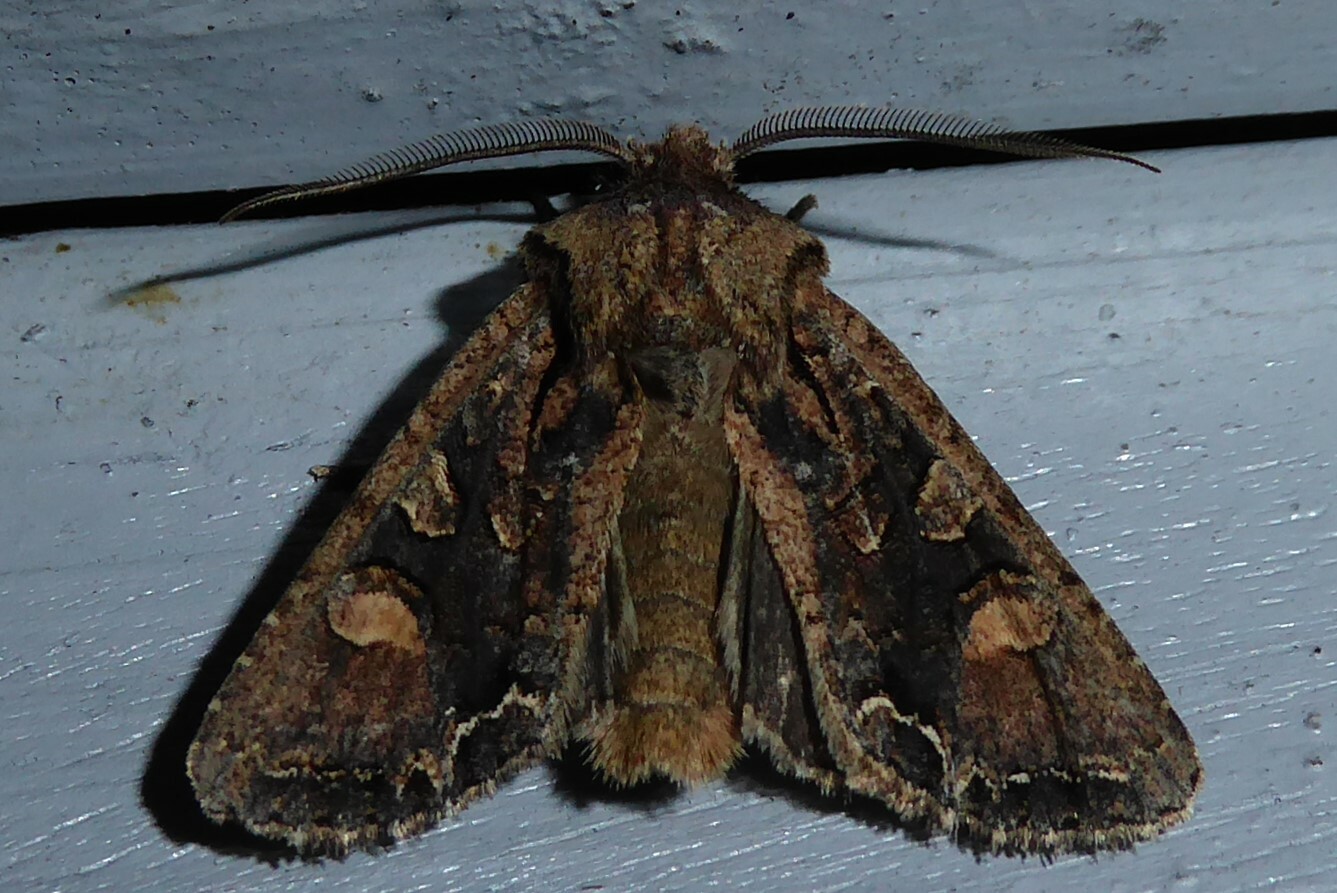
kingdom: Animalia
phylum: Arthropoda
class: Insecta
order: Lepidoptera
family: Noctuidae
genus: Ichneutica
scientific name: Ichneutica skelloni
